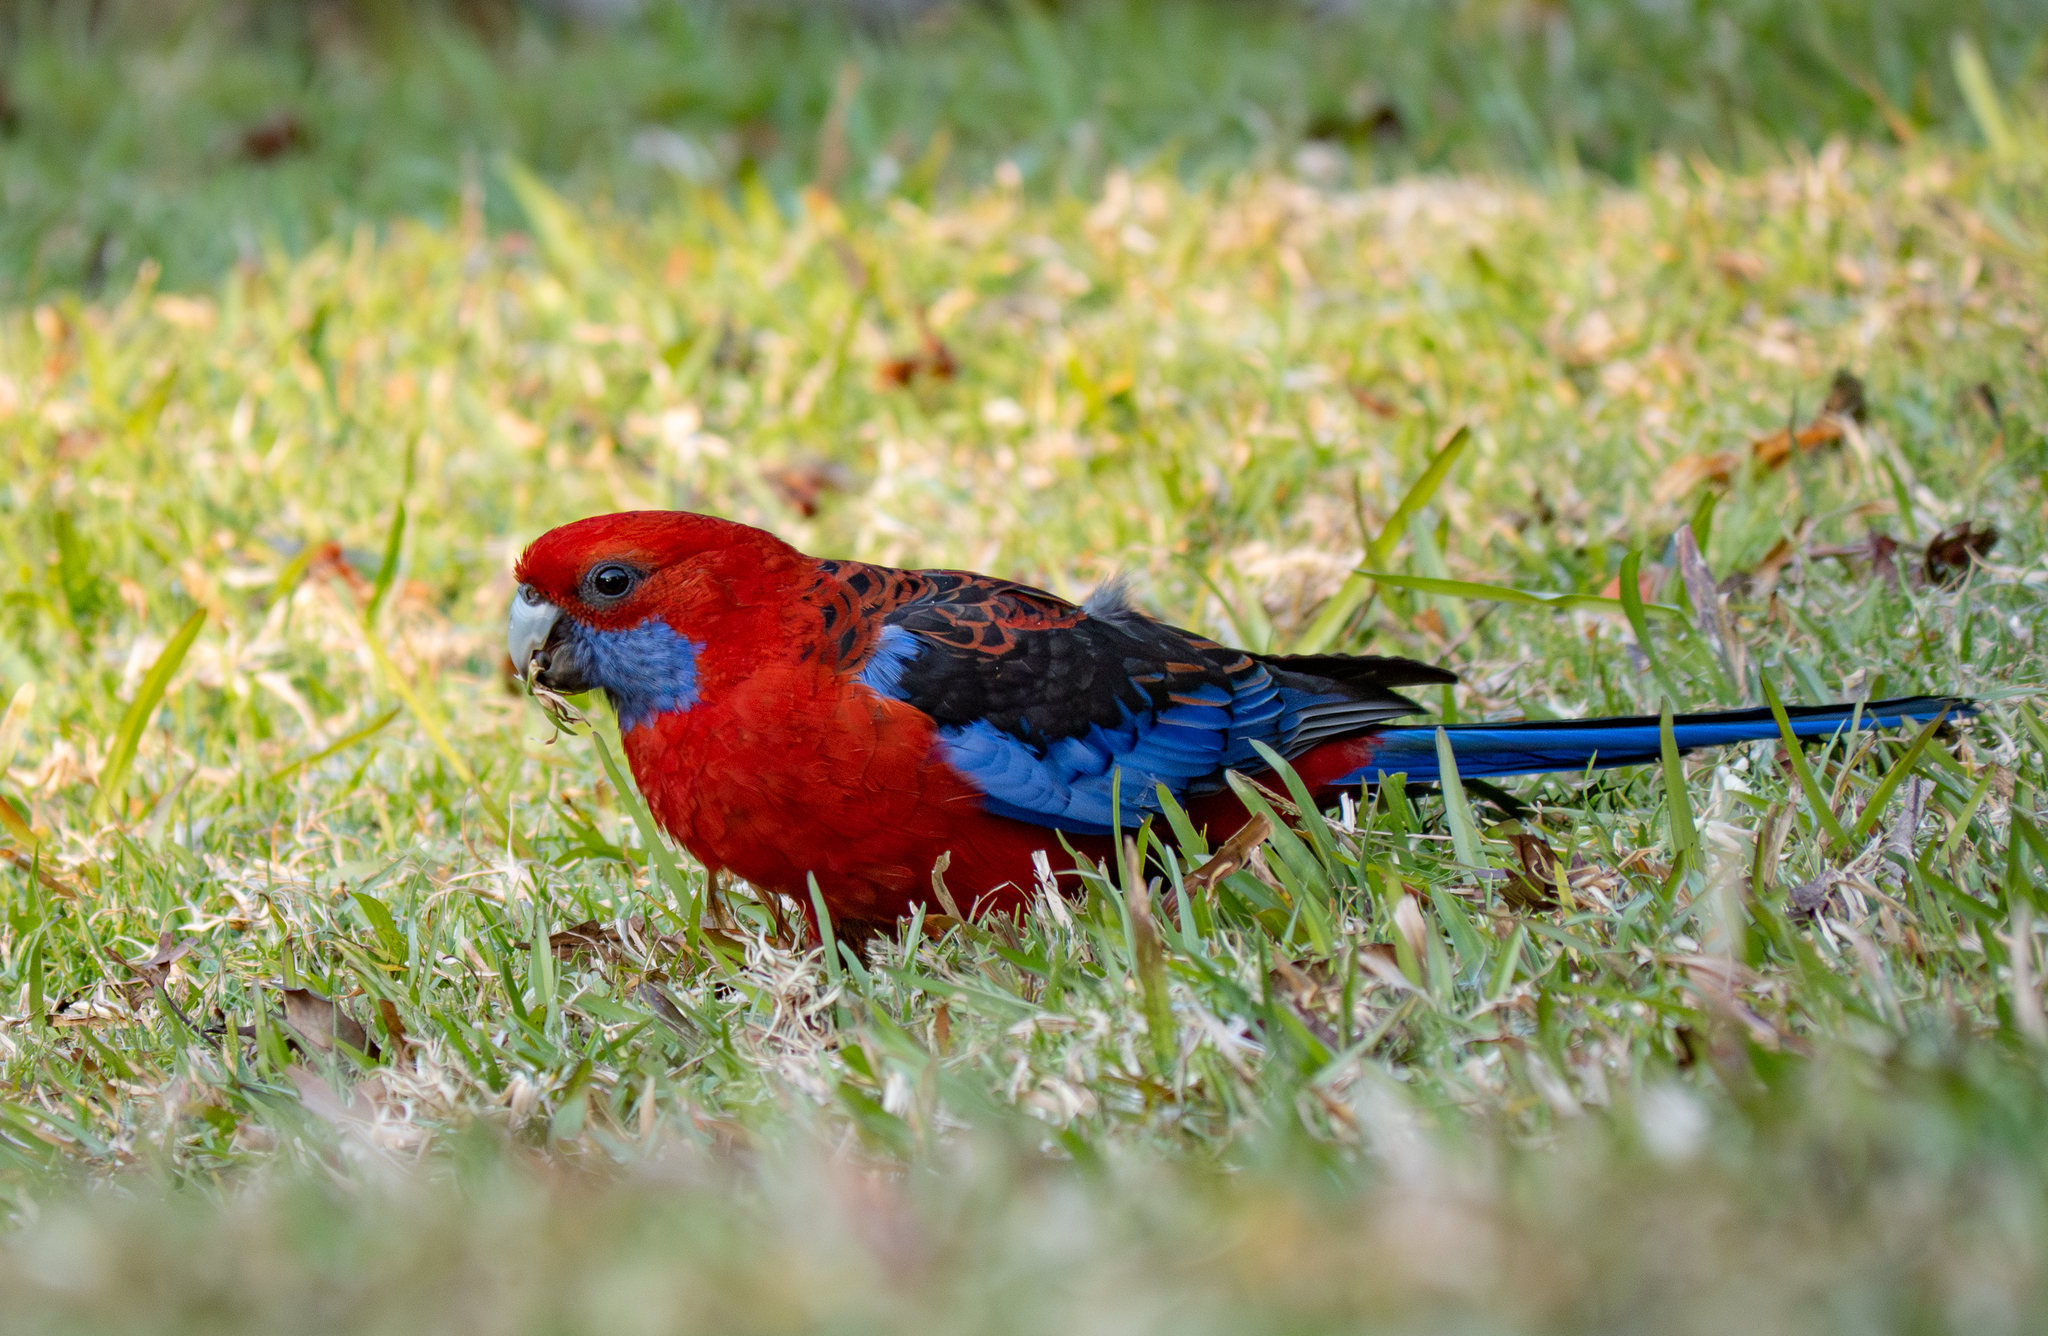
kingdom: Animalia
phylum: Chordata
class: Aves
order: Psittaciformes
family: Psittacidae
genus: Platycercus
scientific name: Platycercus elegans
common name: Crimson rosella
